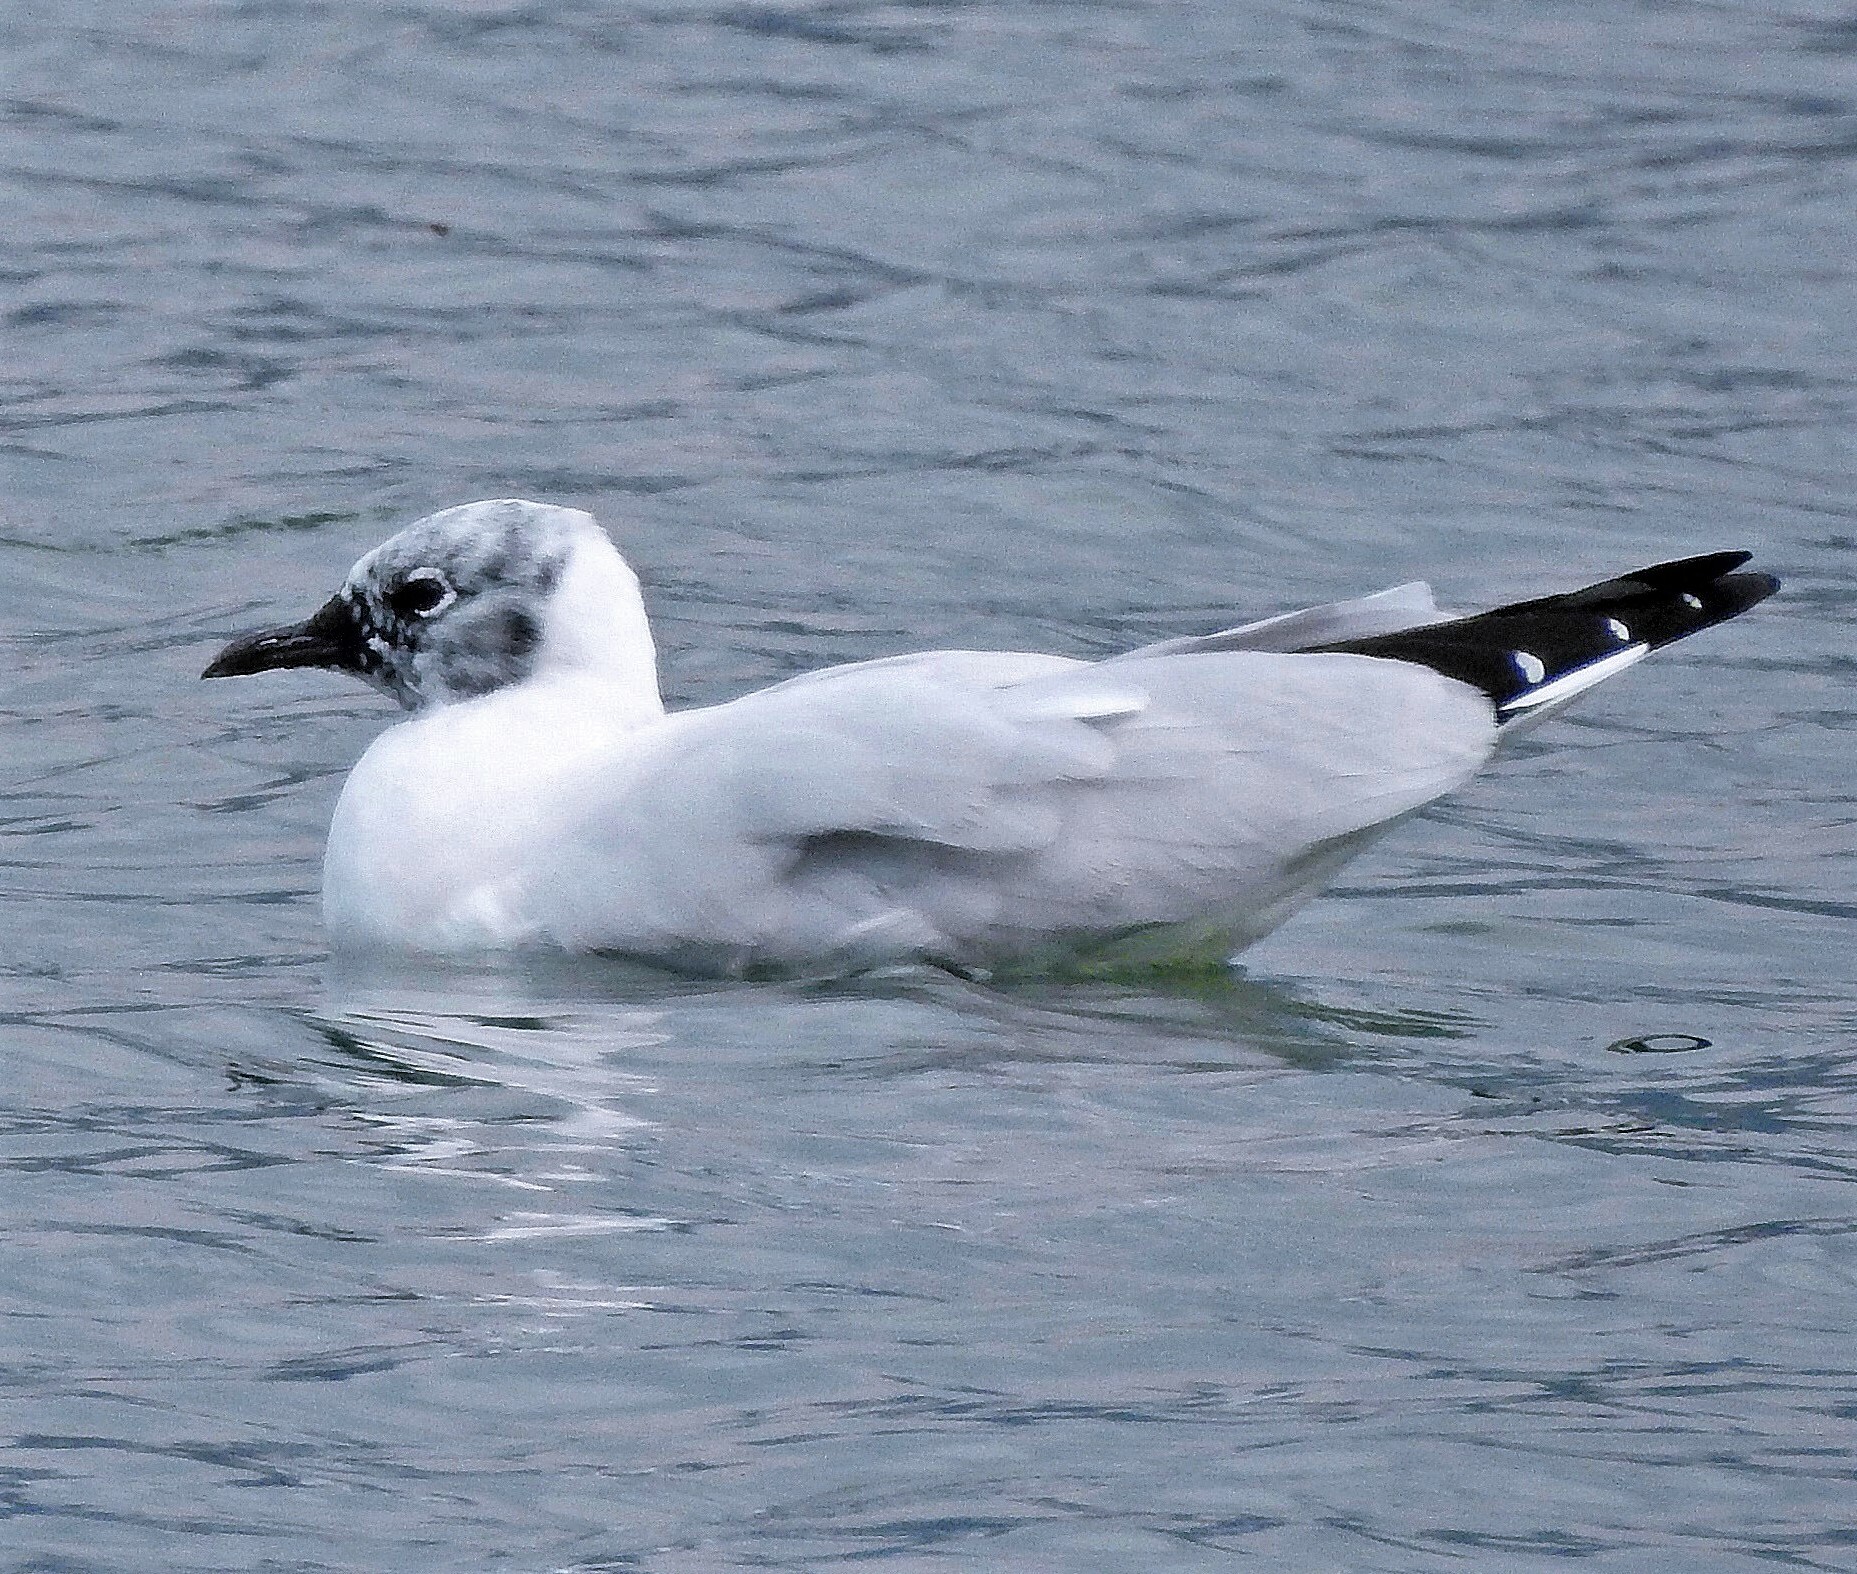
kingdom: Animalia
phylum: Chordata
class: Aves
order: Charadriiformes
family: Laridae
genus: Chroicocephalus
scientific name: Chroicocephalus serranus
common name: Andean gull
